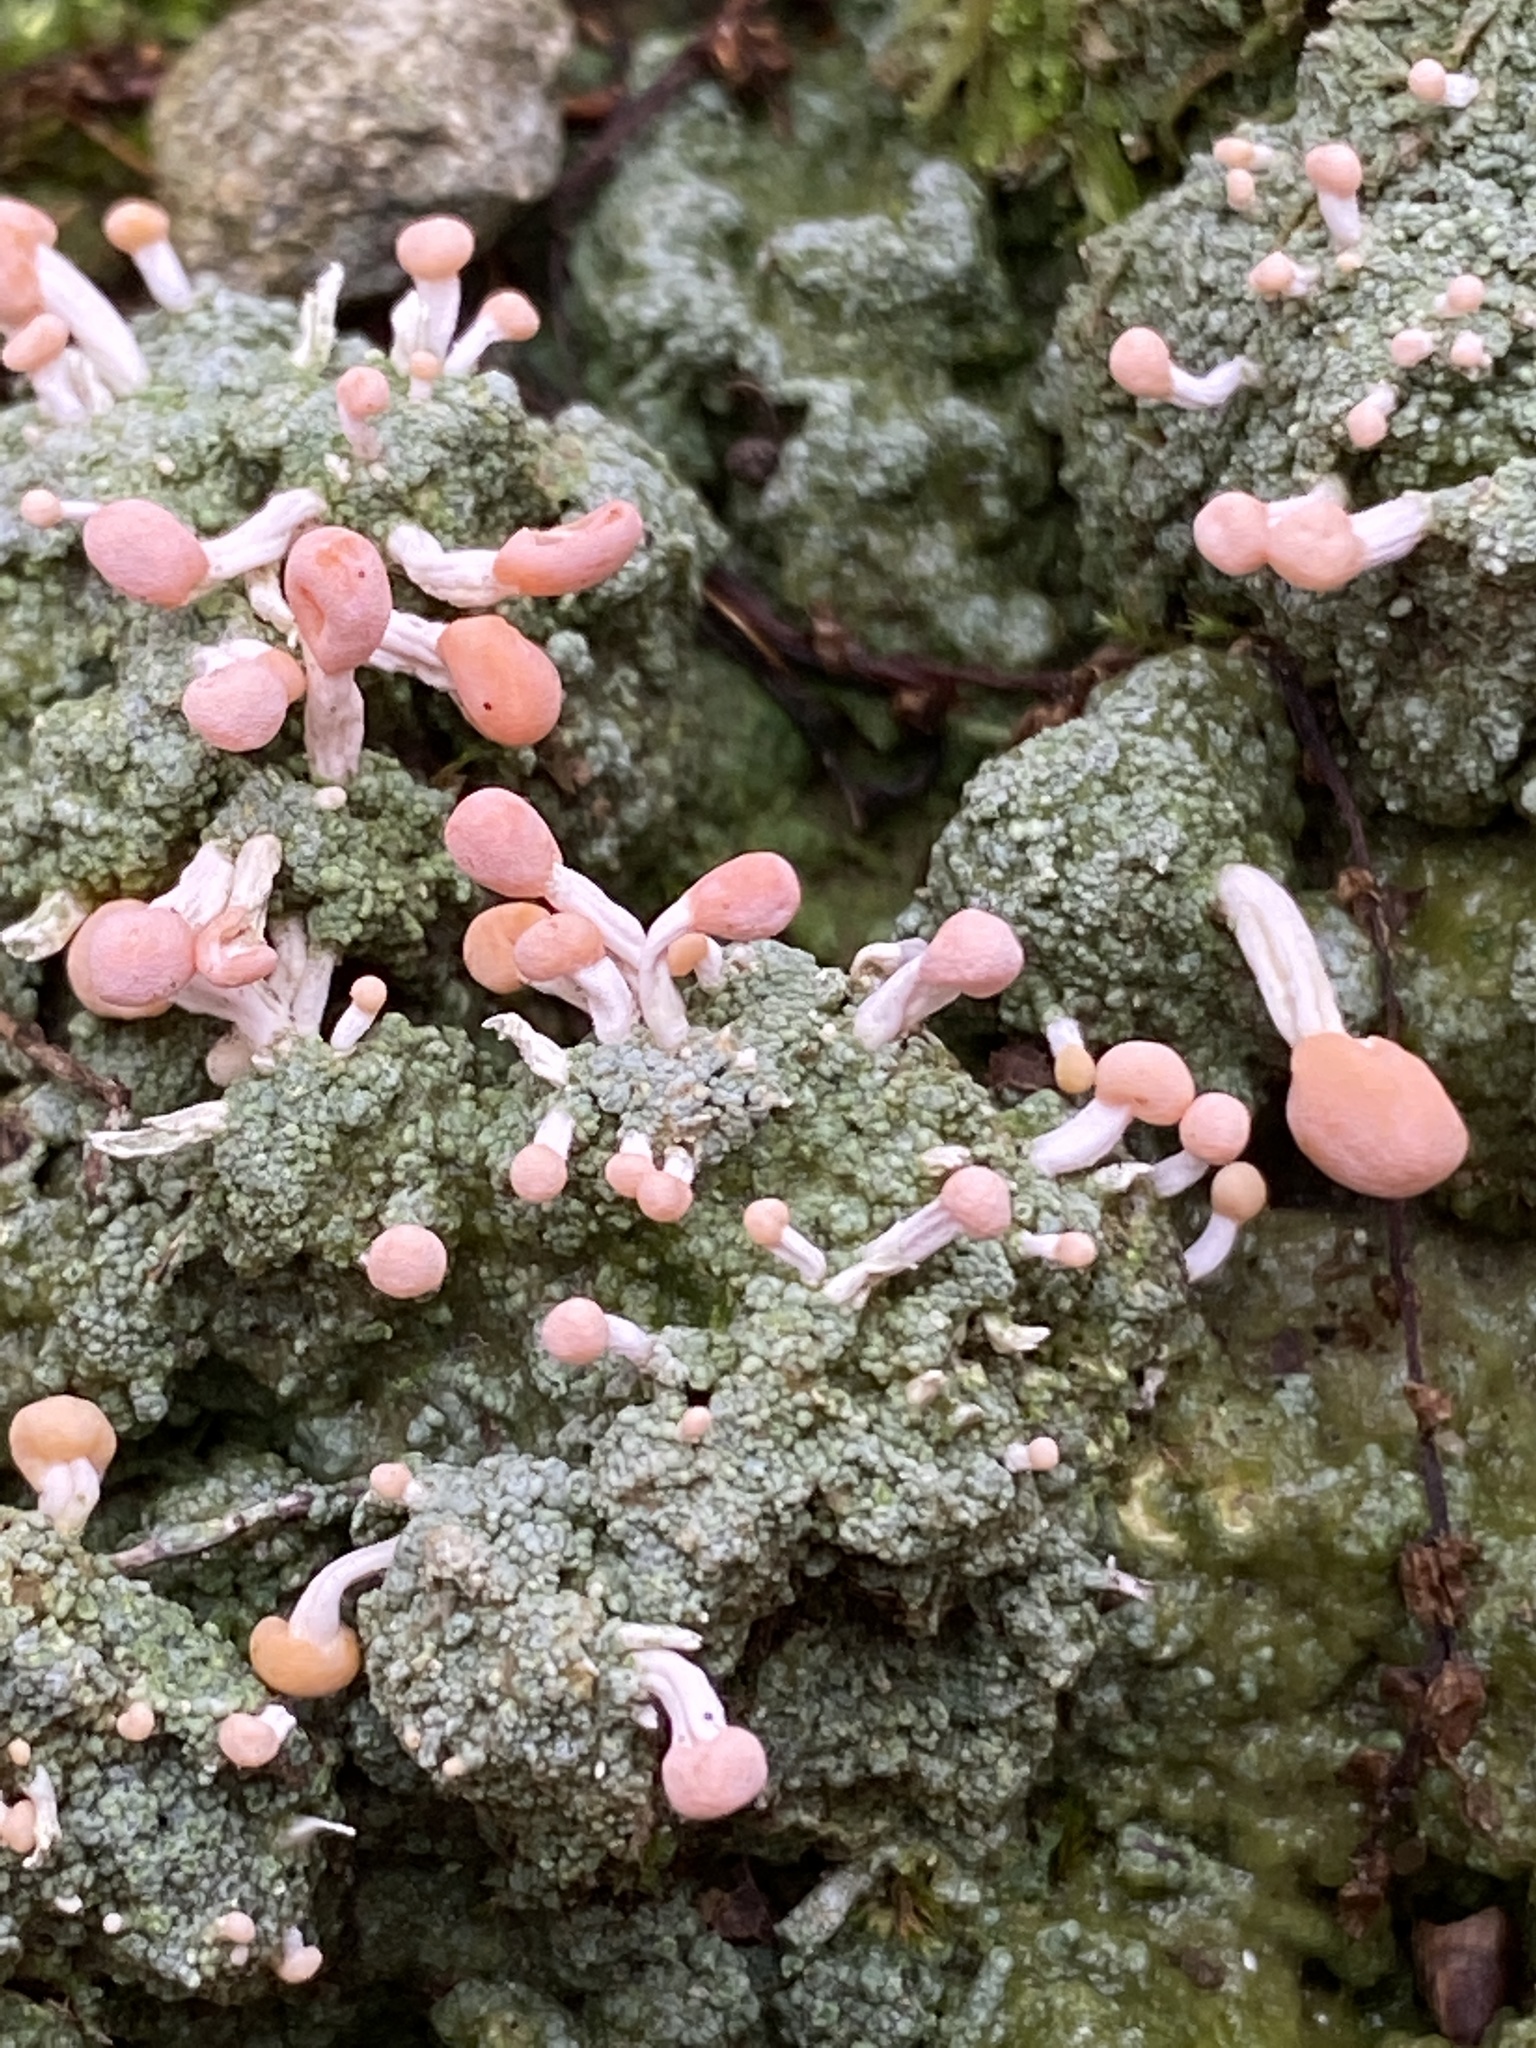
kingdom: Fungi
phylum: Ascomycota
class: Lecanoromycetes
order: Pertusariales
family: Icmadophilaceae
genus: Dibaeis
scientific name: Dibaeis baeomyces
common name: Pink earth lichen
